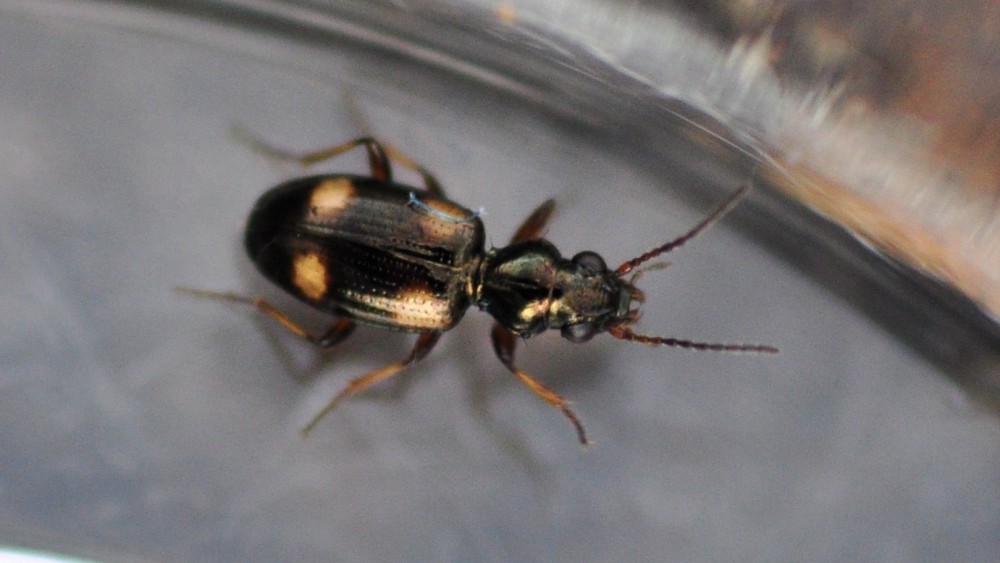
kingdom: Animalia
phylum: Arthropoda
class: Insecta
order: Coleoptera
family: Carabidae
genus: Bembidion
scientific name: Bembidion quadrimaculatum
